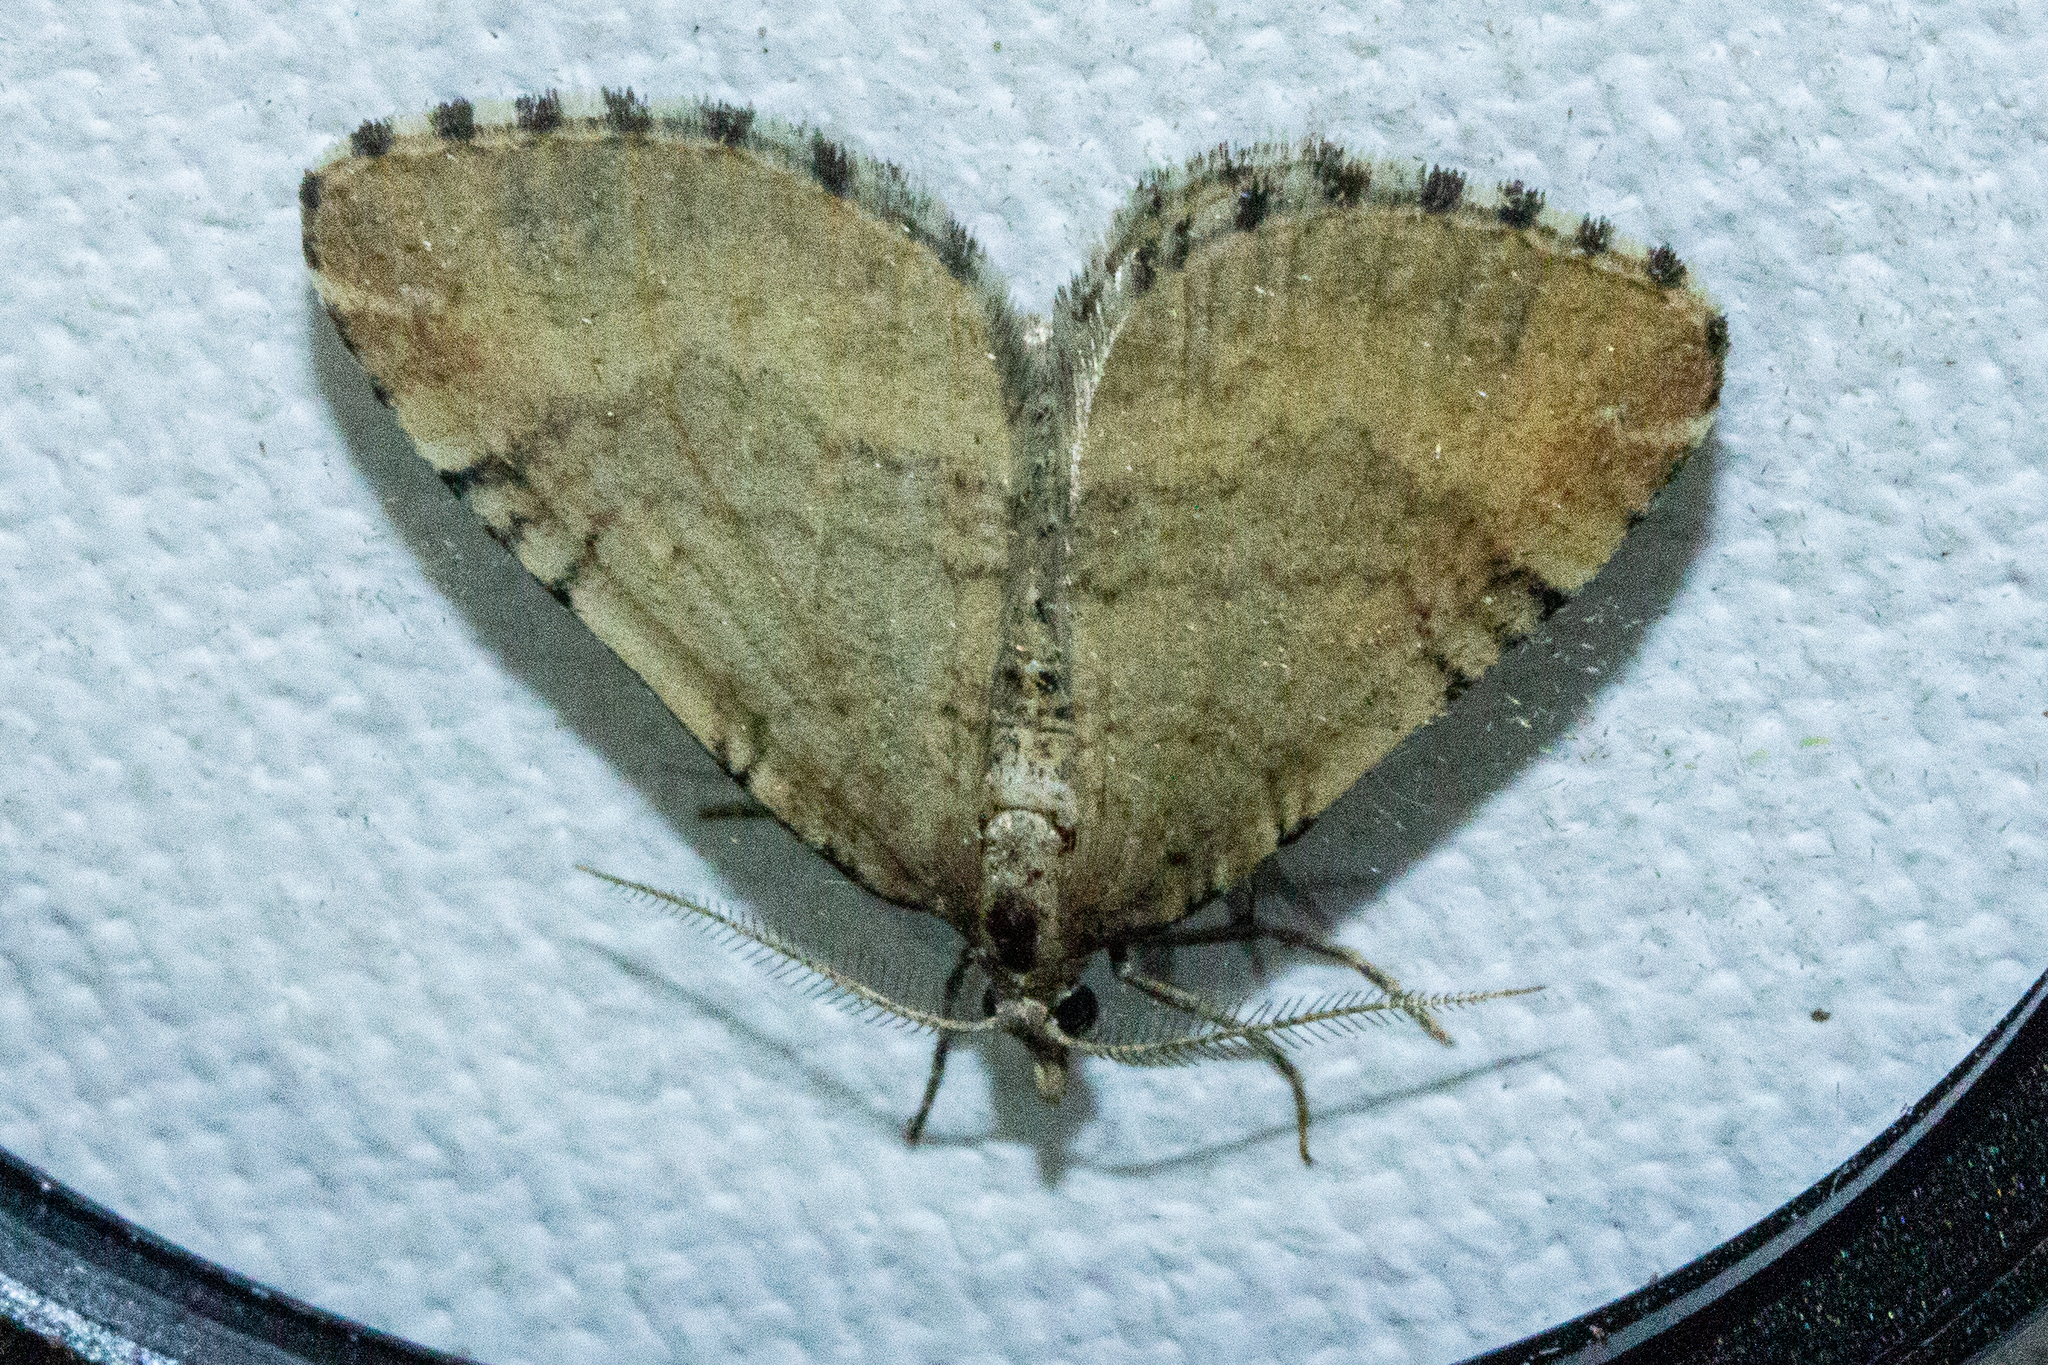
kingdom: Animalia
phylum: Arthropoda
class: Insecta
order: Lepidoptera
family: Geometridae
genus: Asaphodes
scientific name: Asaphodes aegrota
